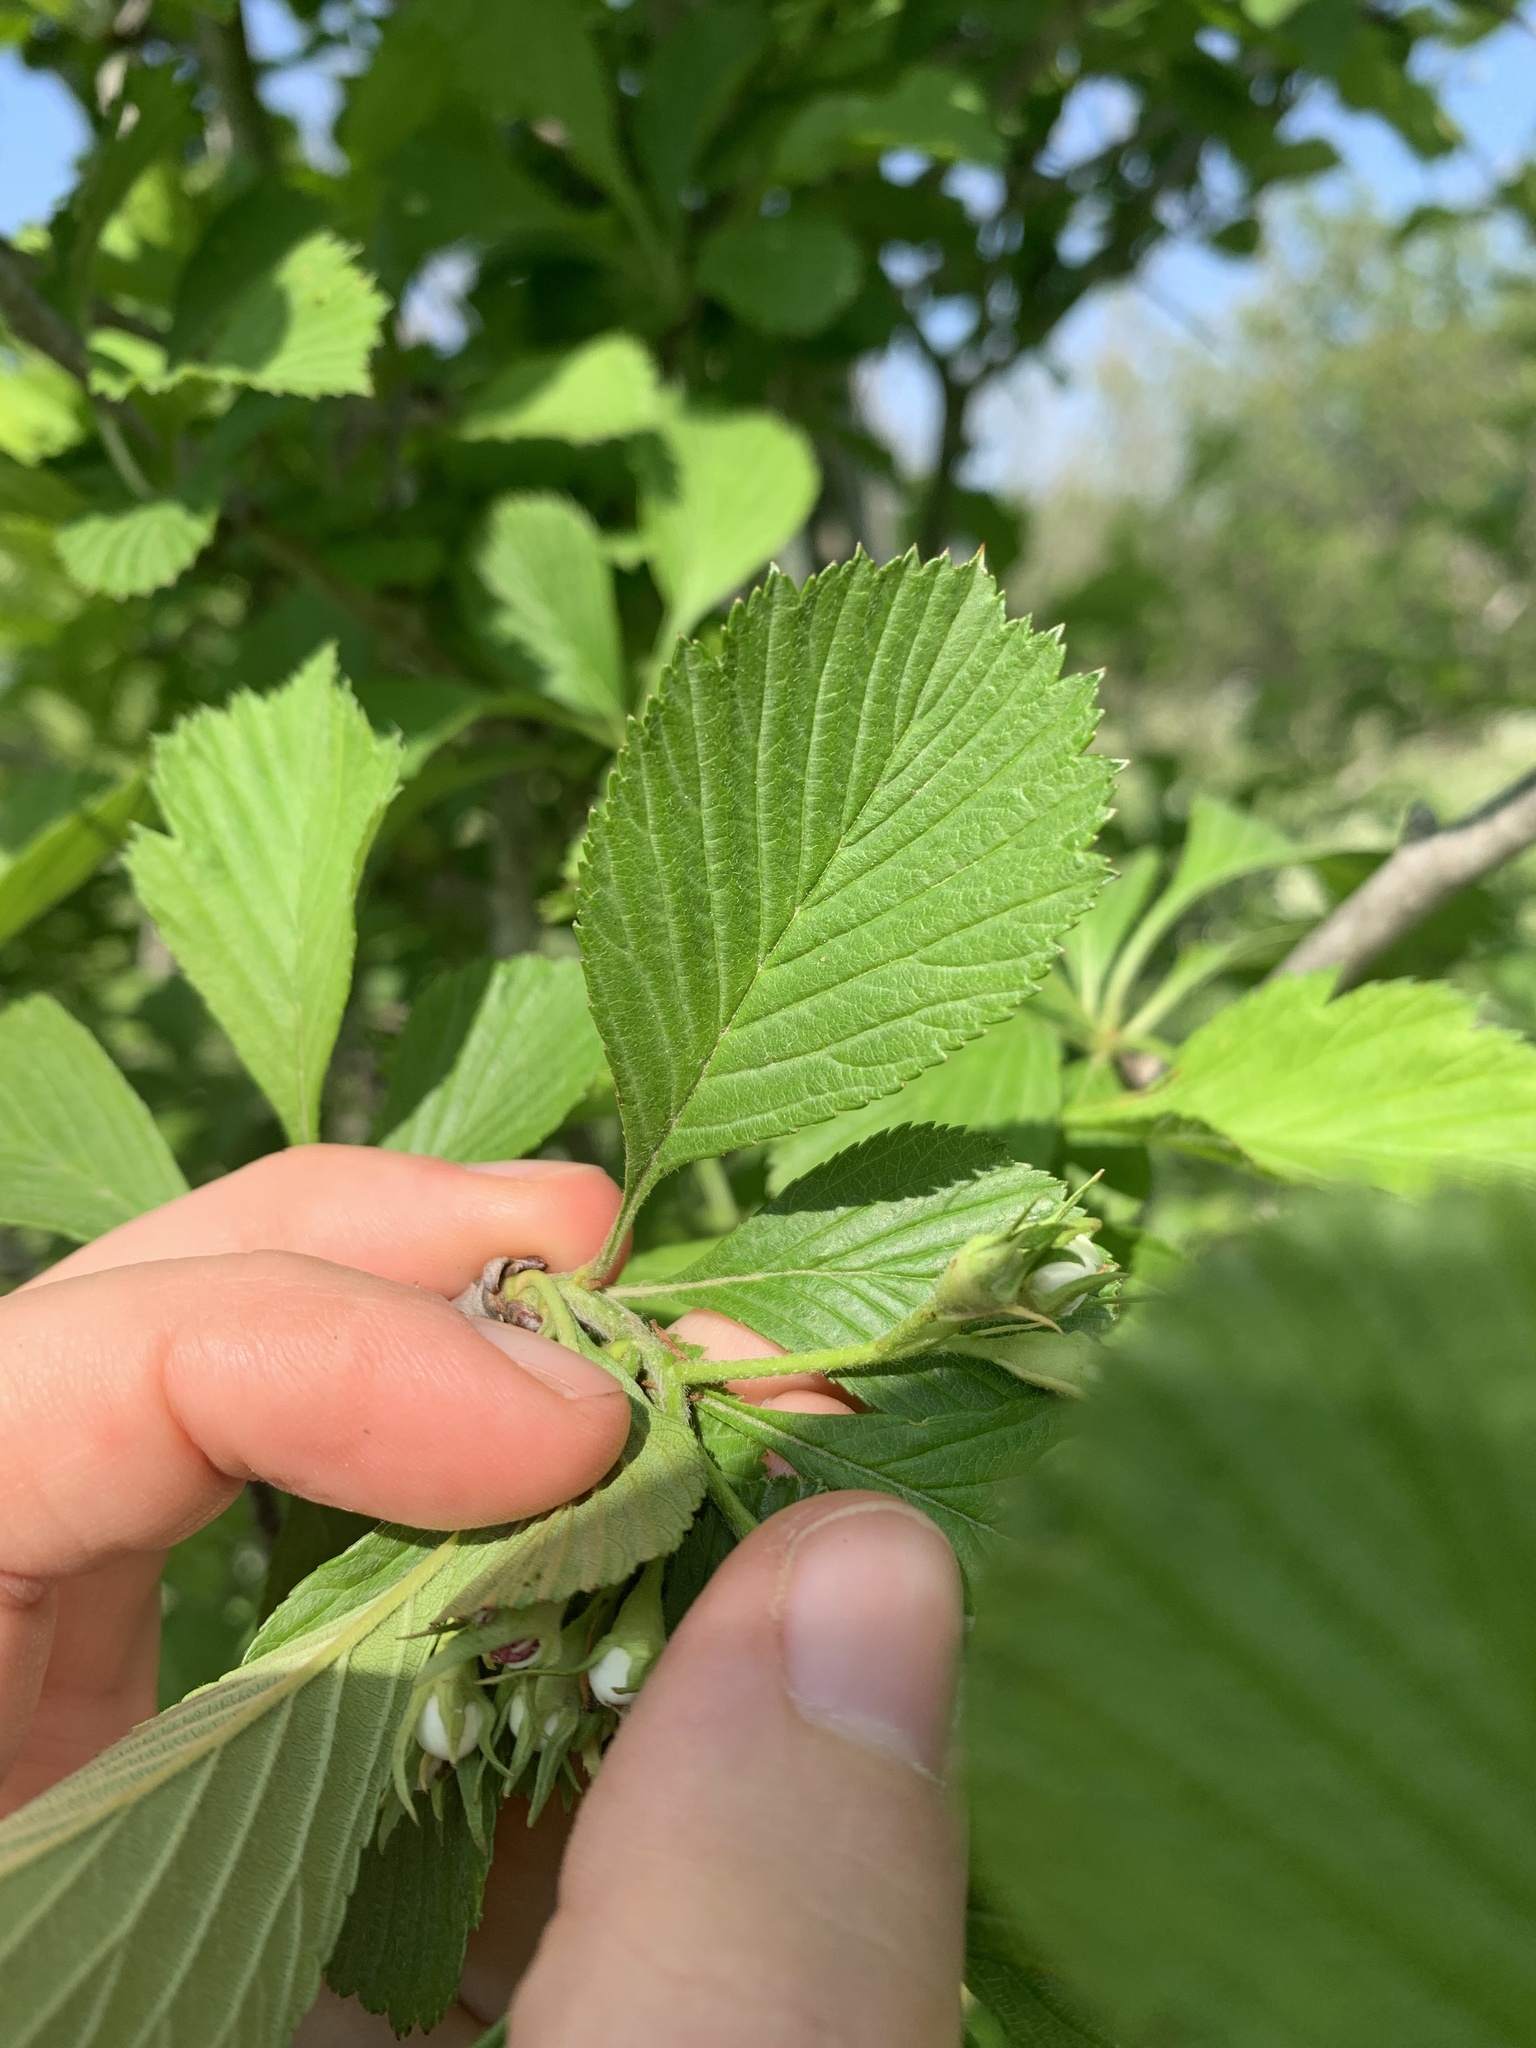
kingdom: Plantae
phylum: Tracheophyta
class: Magnoliopsida
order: Rosales
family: Rosaceae
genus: Crataegus
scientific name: Crataegus punctata
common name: Dotted hawthorn
